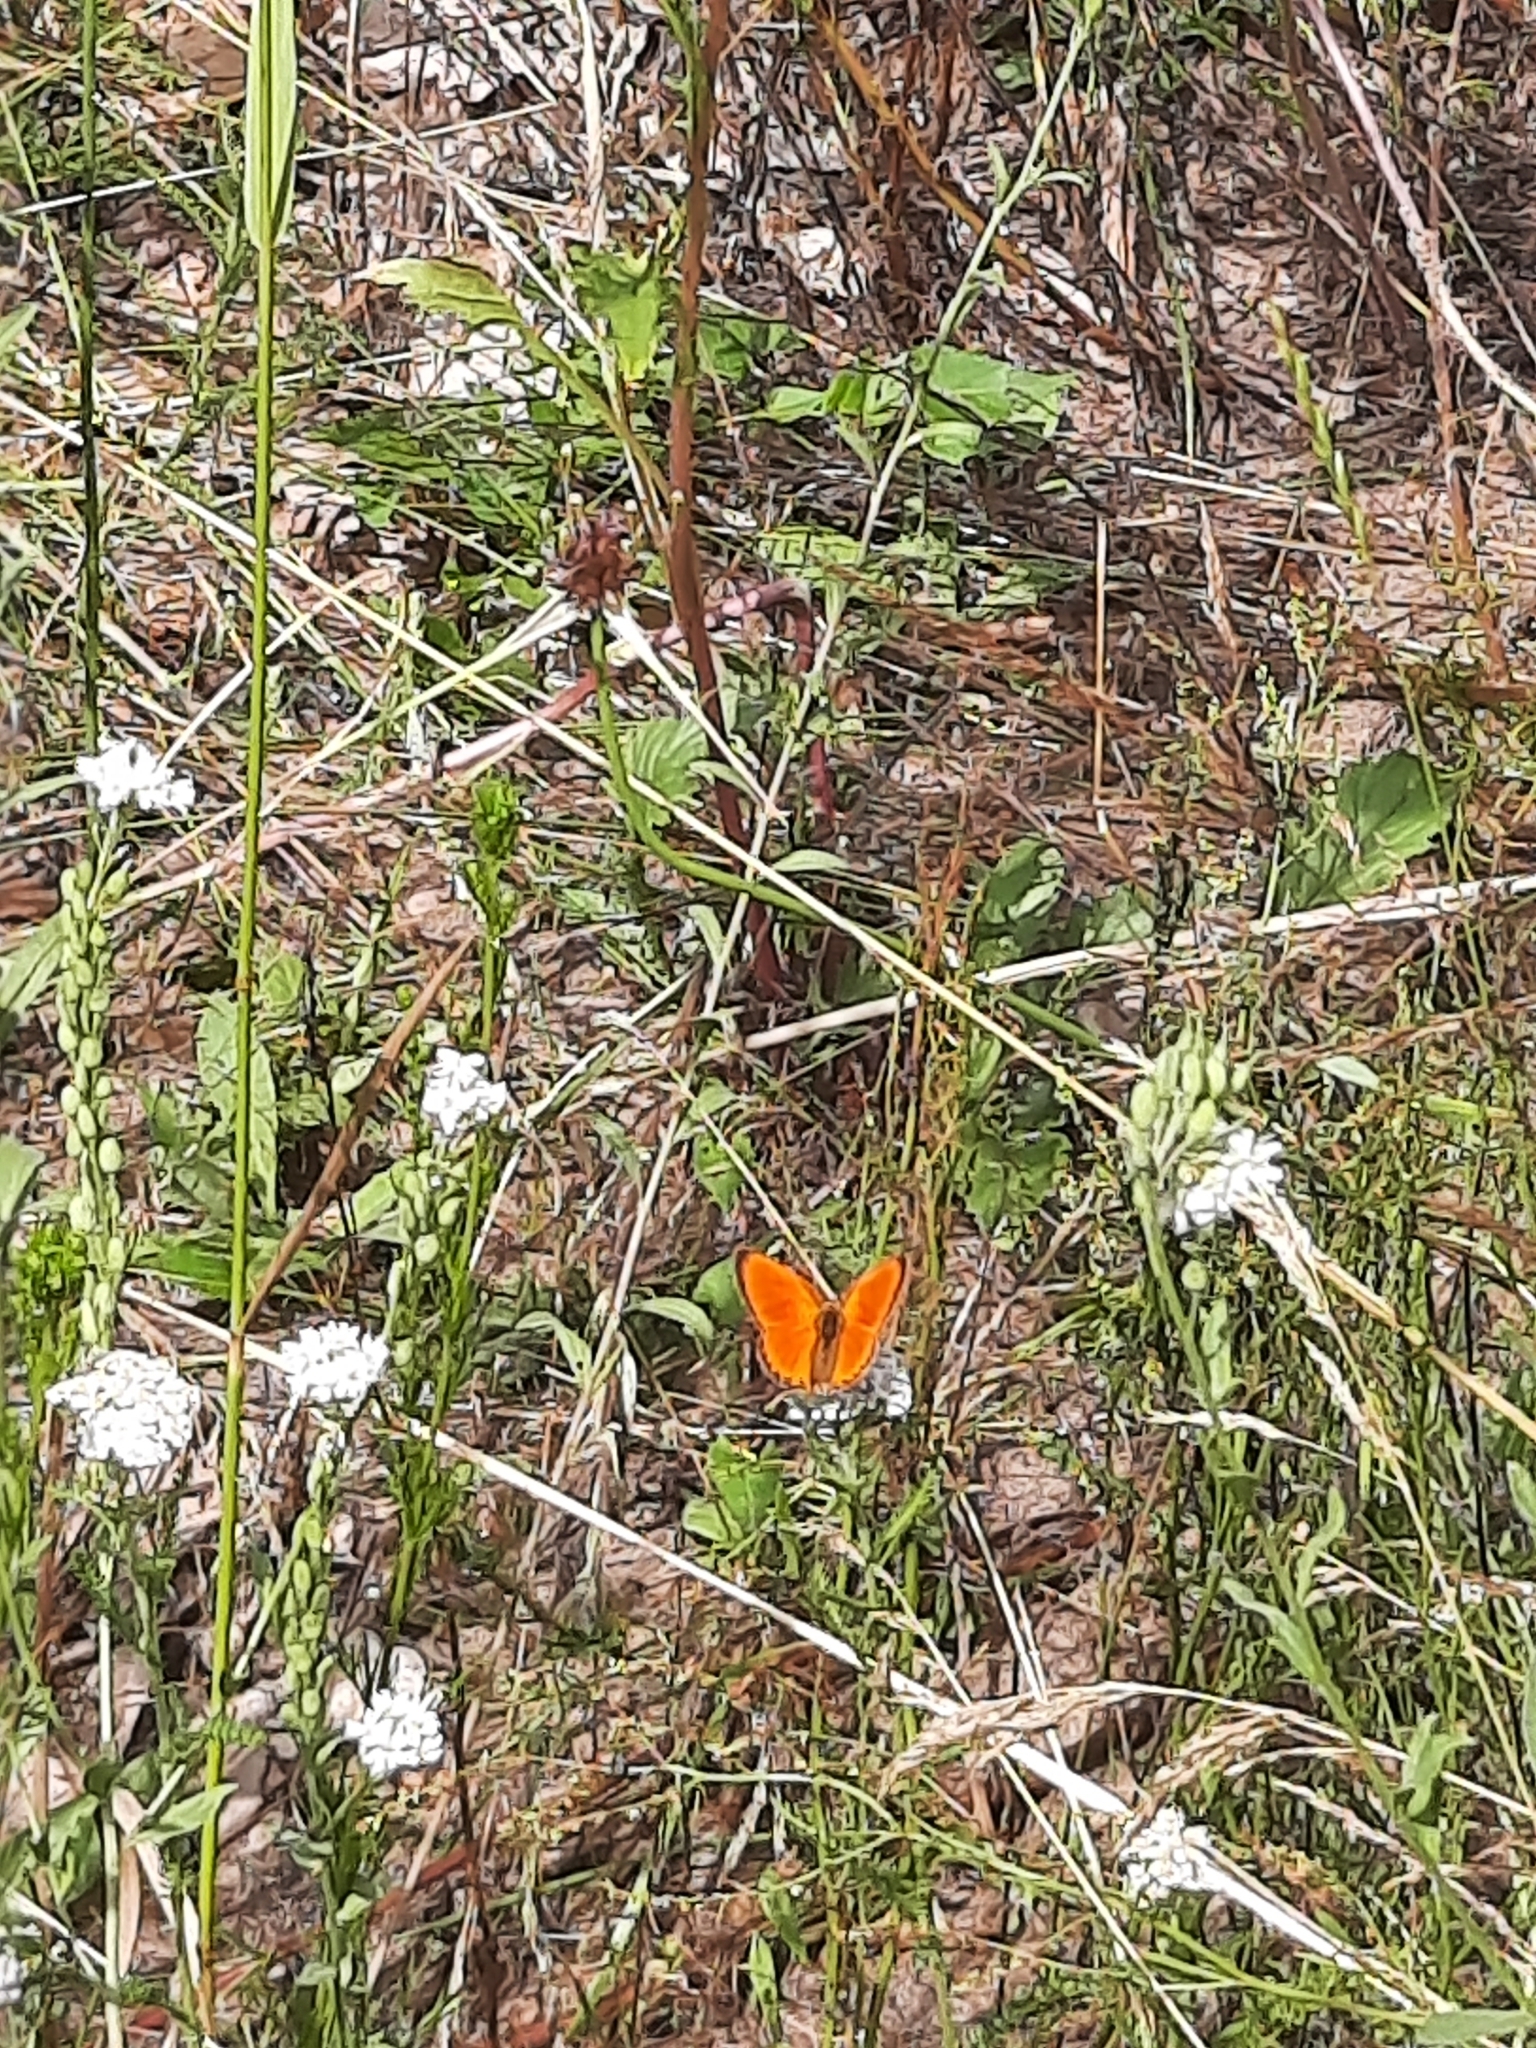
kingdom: Animalia
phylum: Arthropoda
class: Insecta
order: Lepidoptera
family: Lycaenidae
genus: Lycaena
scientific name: Lycaena virgaureae
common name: Scarce copper
